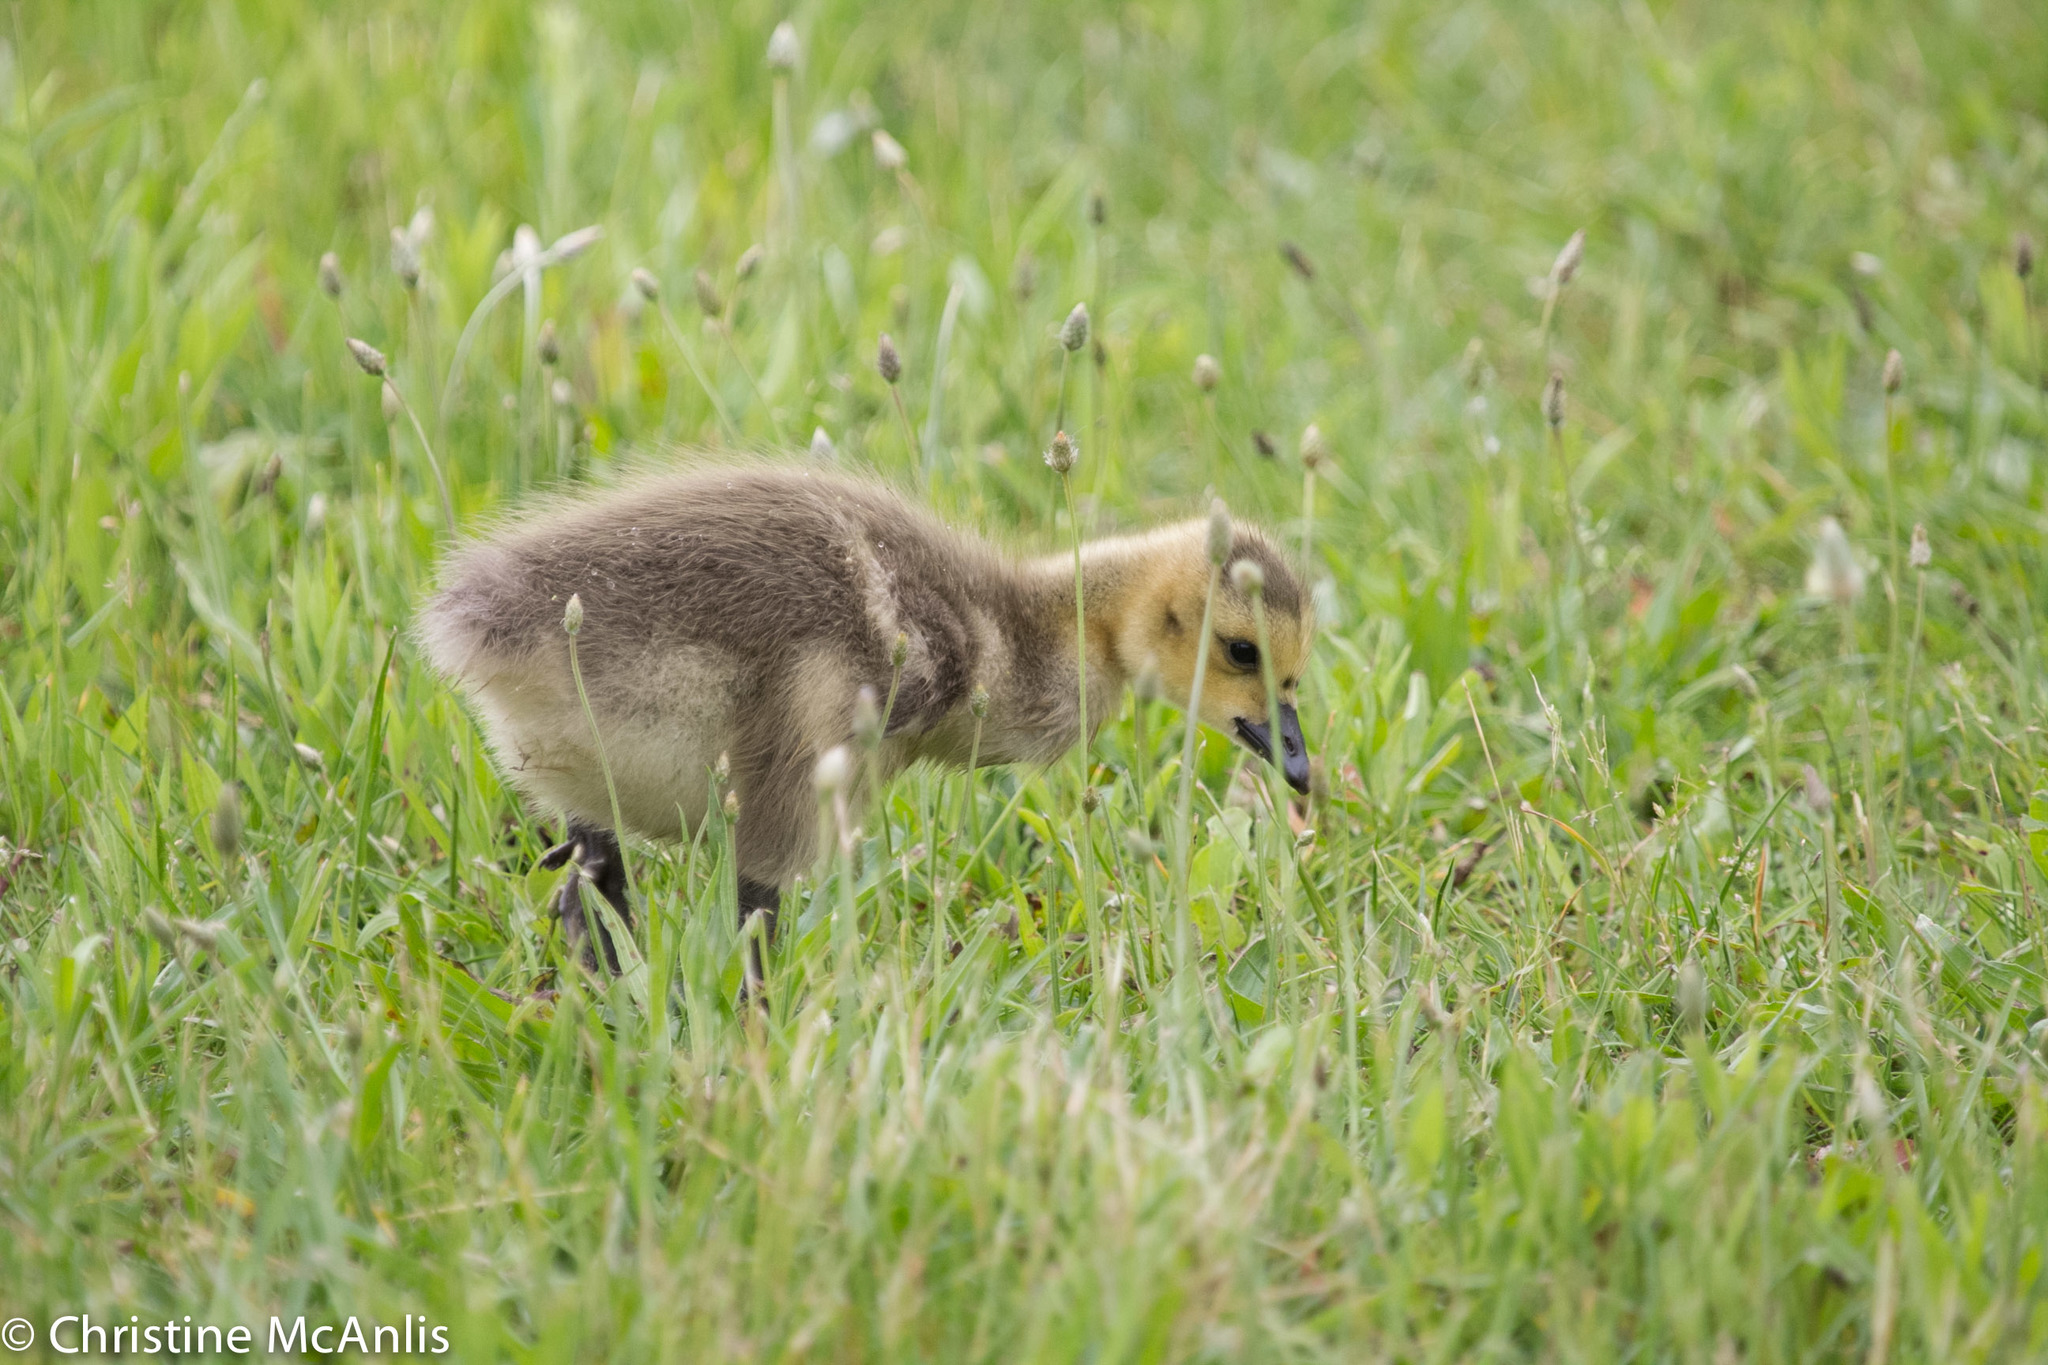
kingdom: Animalia
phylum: Chordata
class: Aves
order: Anseriformes
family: Anatidae
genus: Branta
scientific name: Branta canadensis
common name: Canada goose
